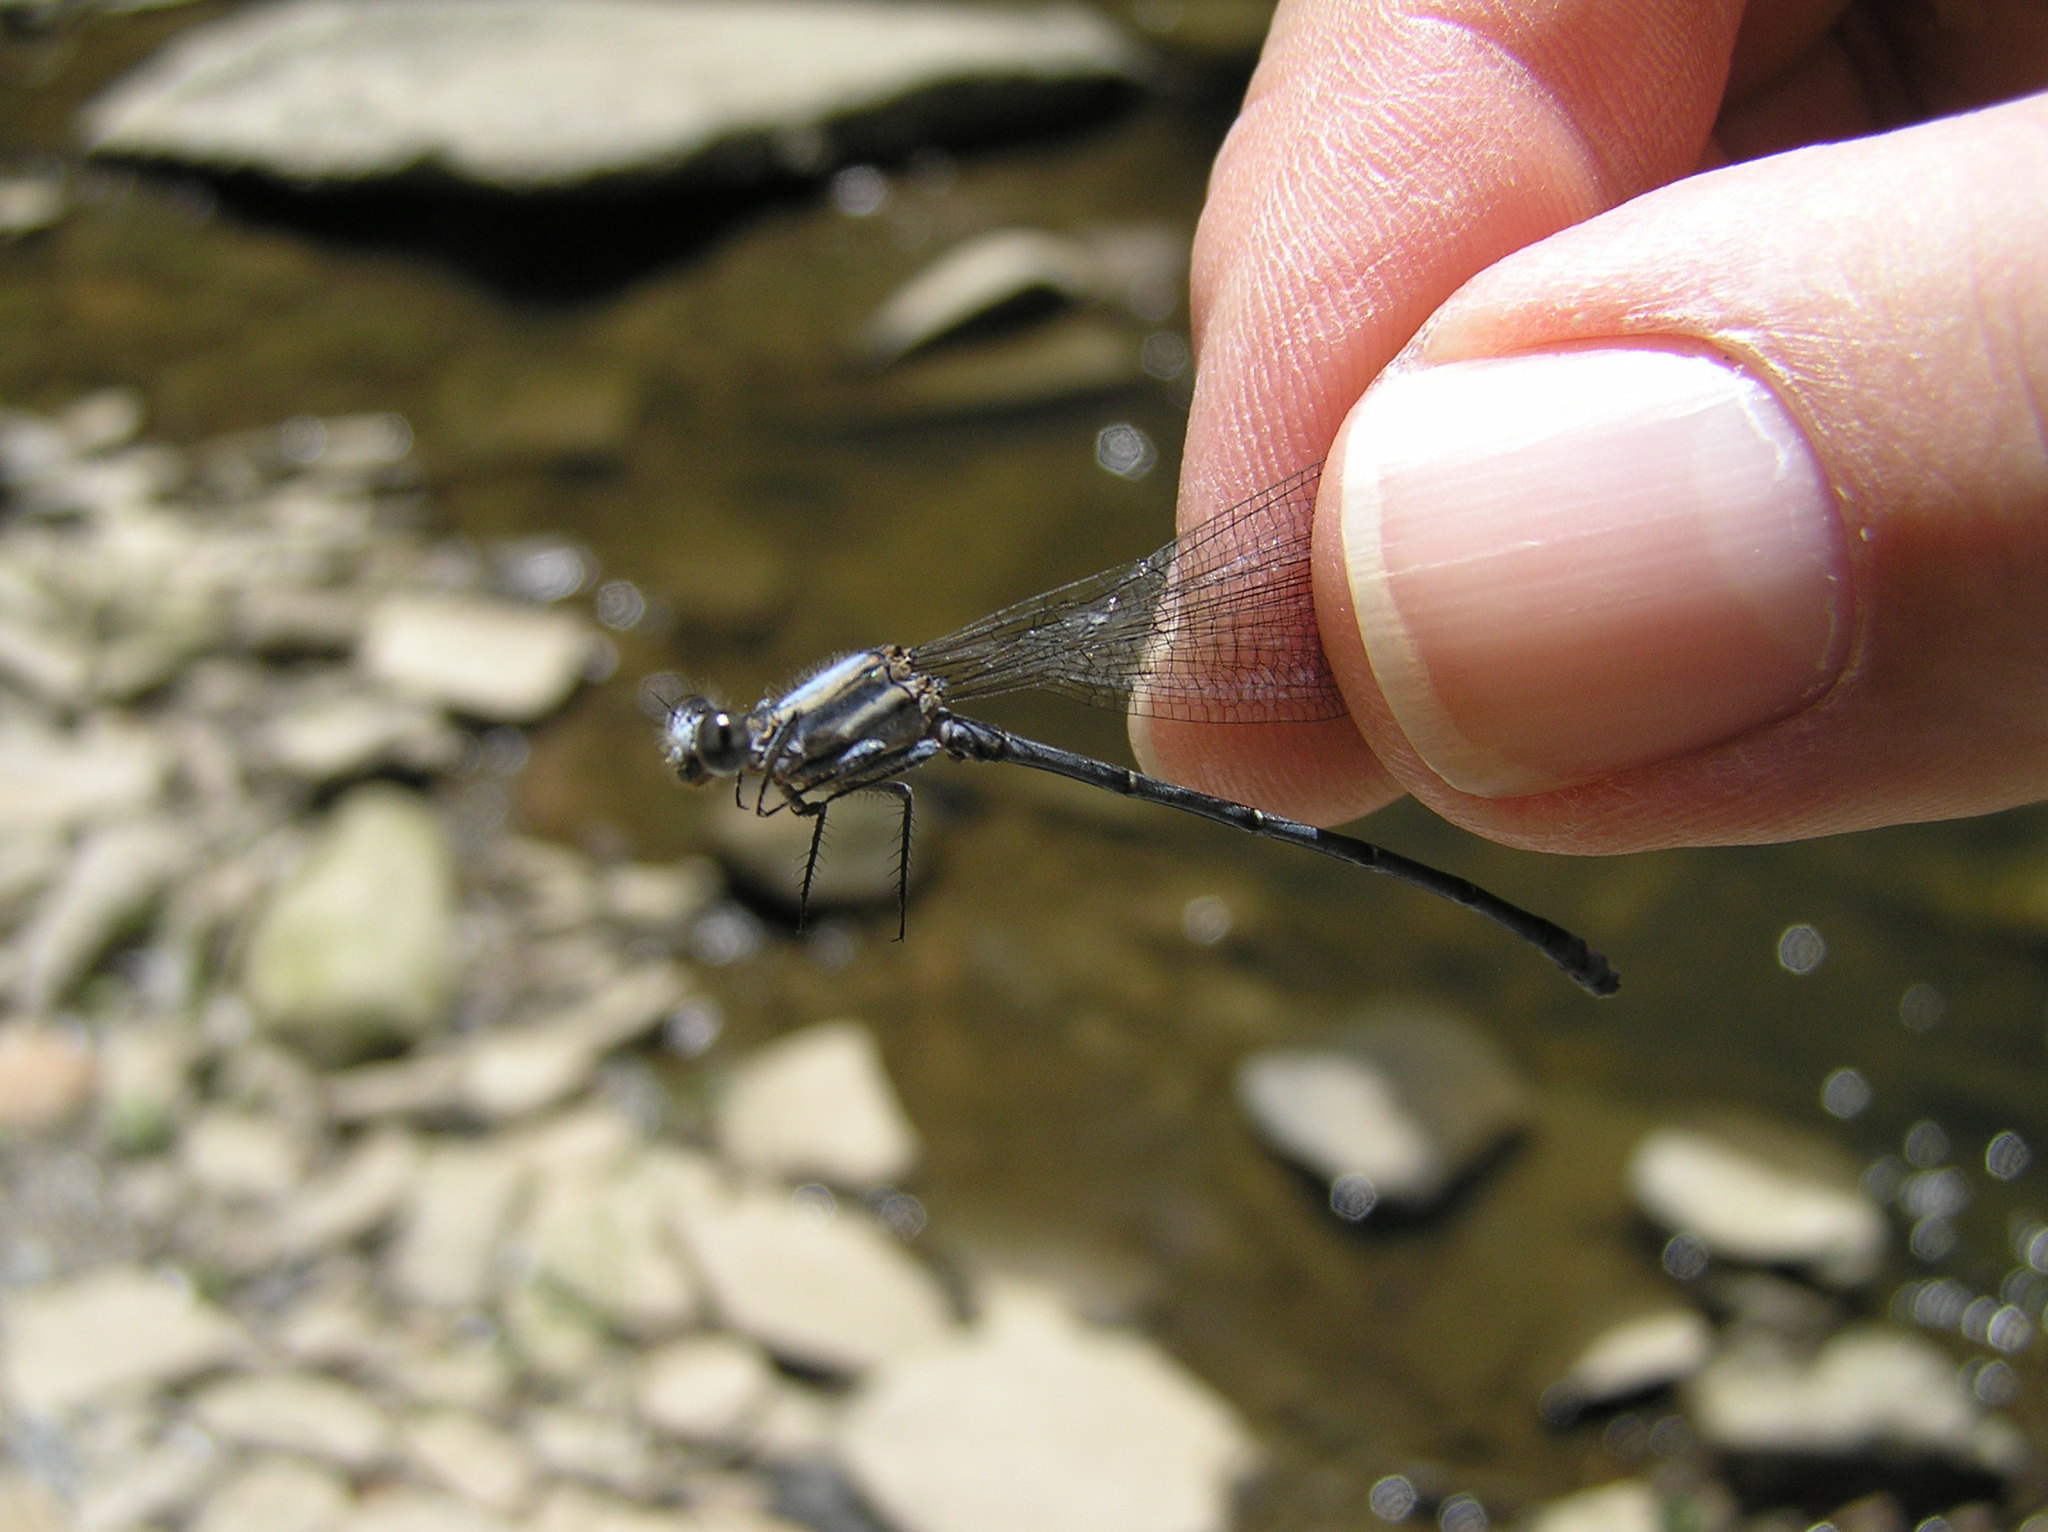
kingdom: Animalia
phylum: Arthropoda
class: Insecta
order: Odonata
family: Coenagrionidae
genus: Argia
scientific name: Argia moesta
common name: Powdered dancer
